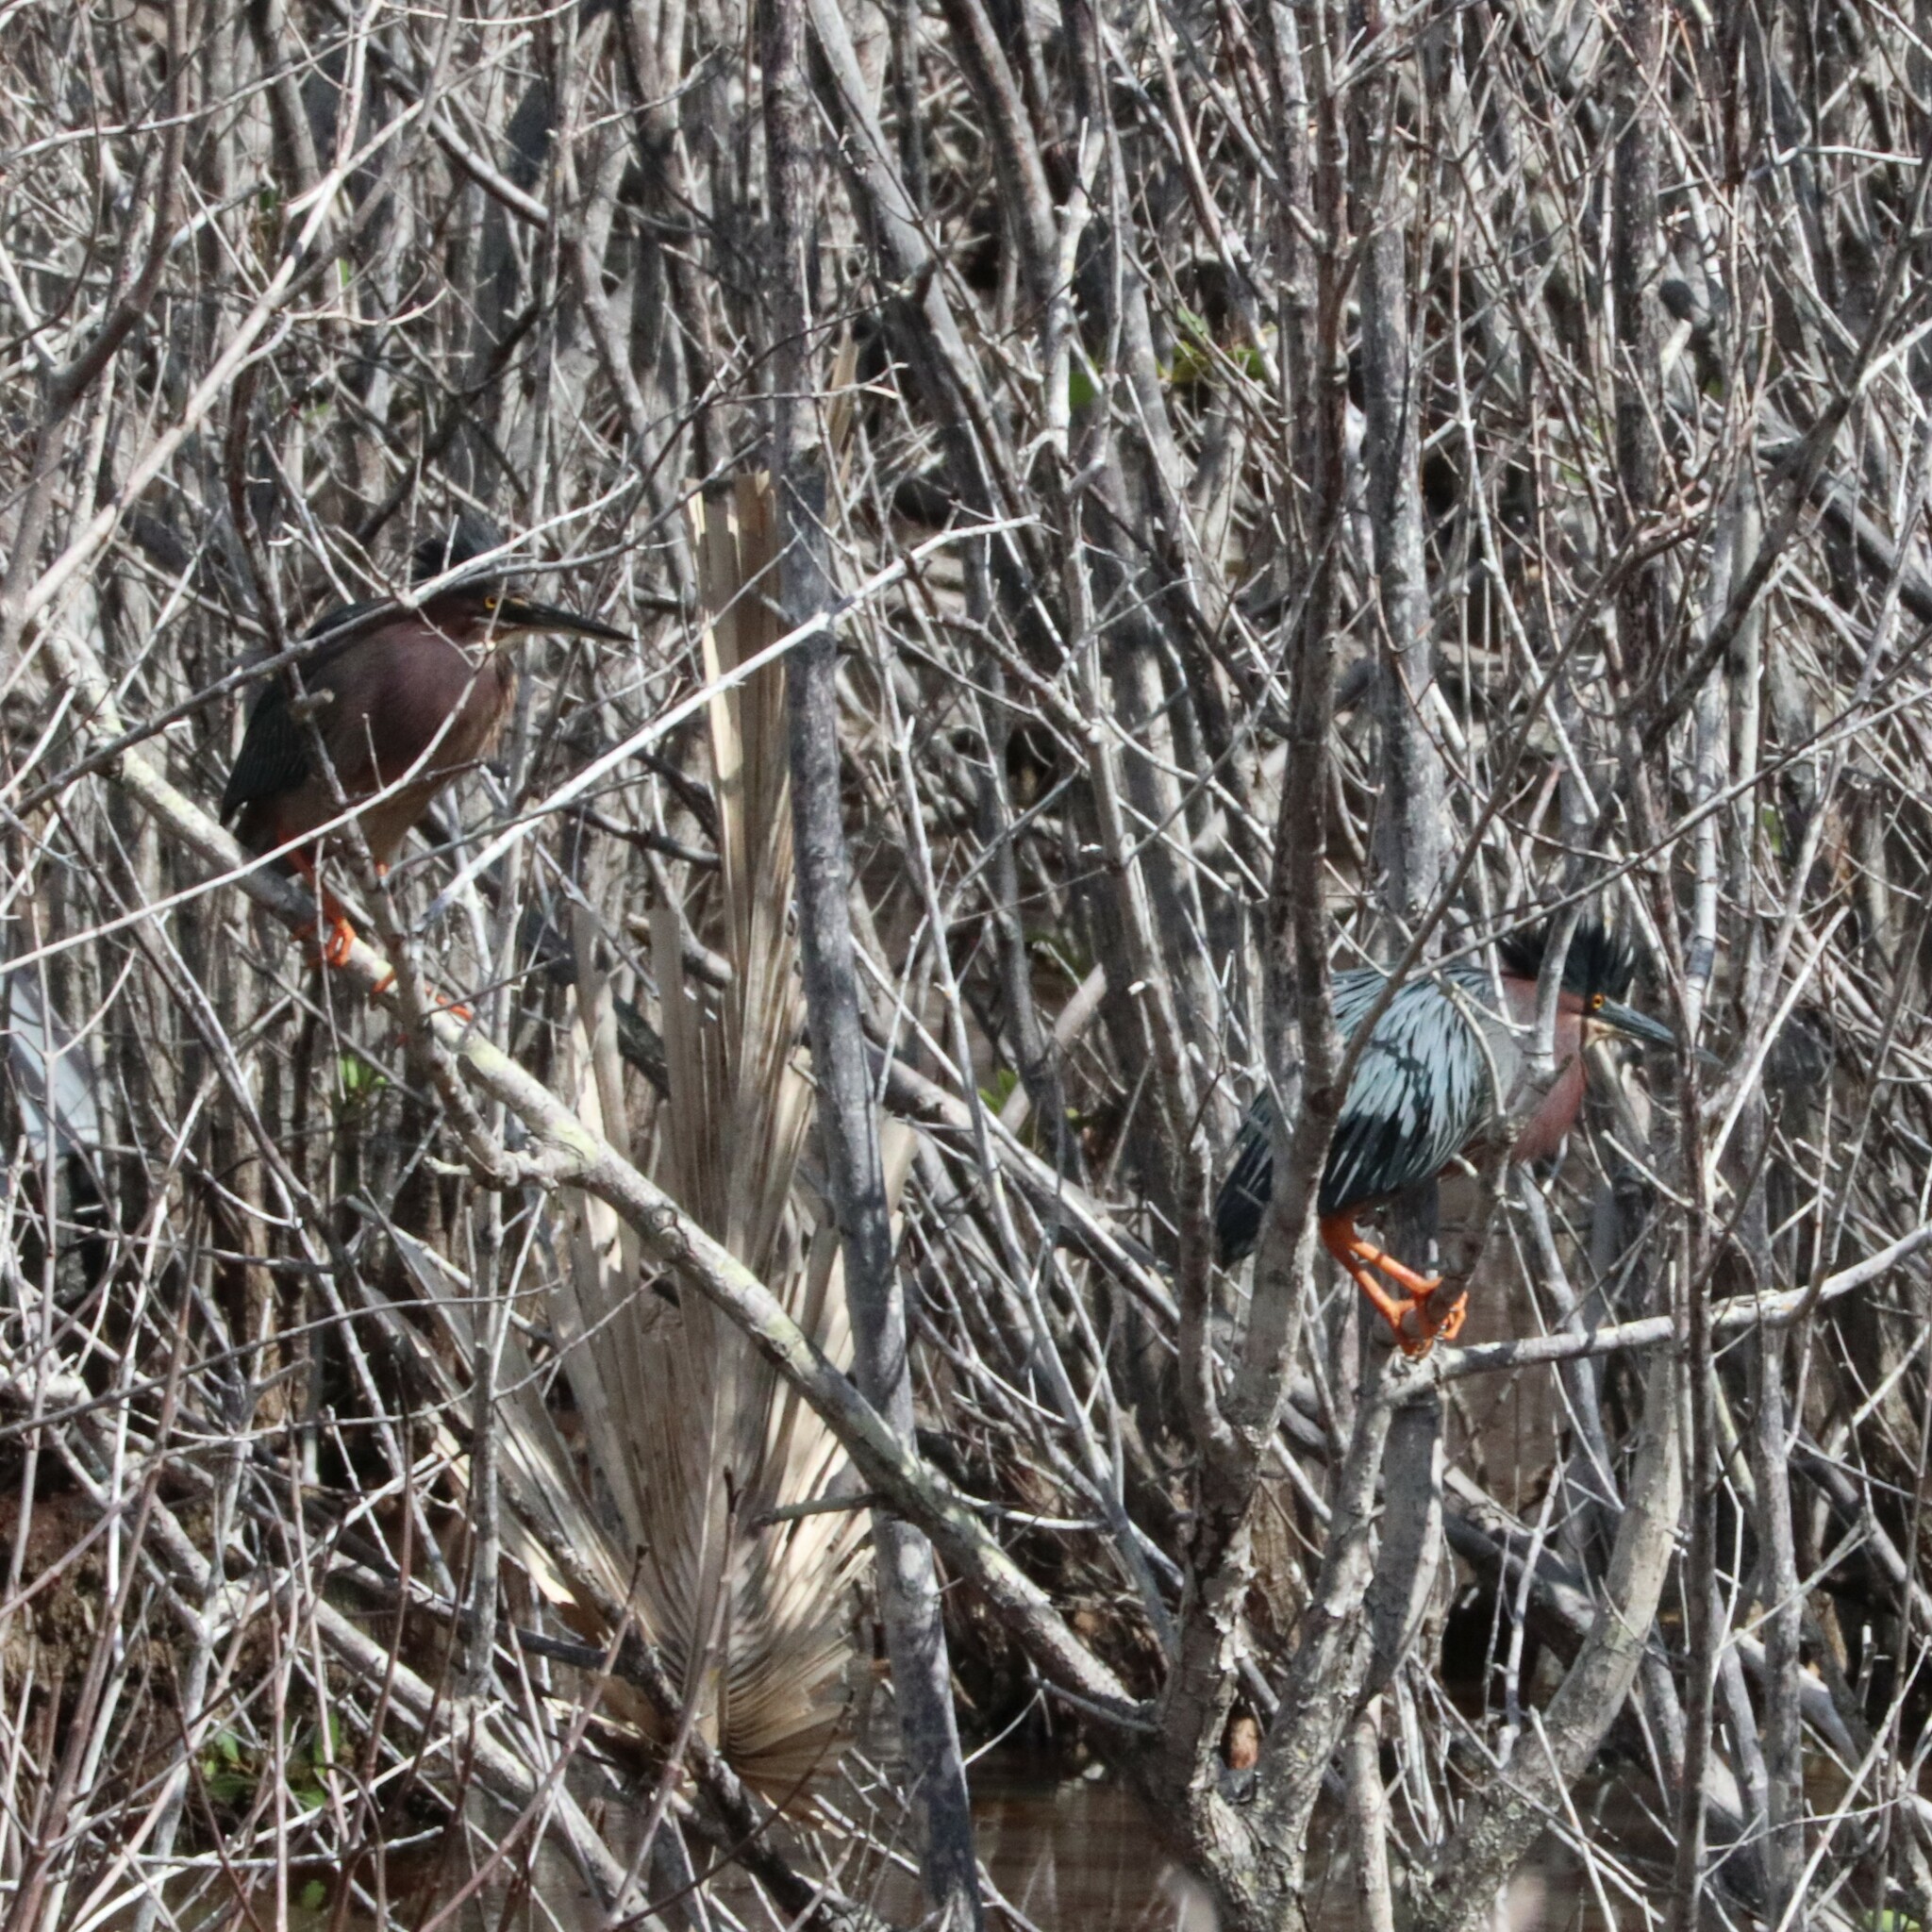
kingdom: Animalia
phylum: Chordata
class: Aves
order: Pelecaniformes
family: Ardeidae
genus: Butorides
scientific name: Butorides virescens
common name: Green heron
